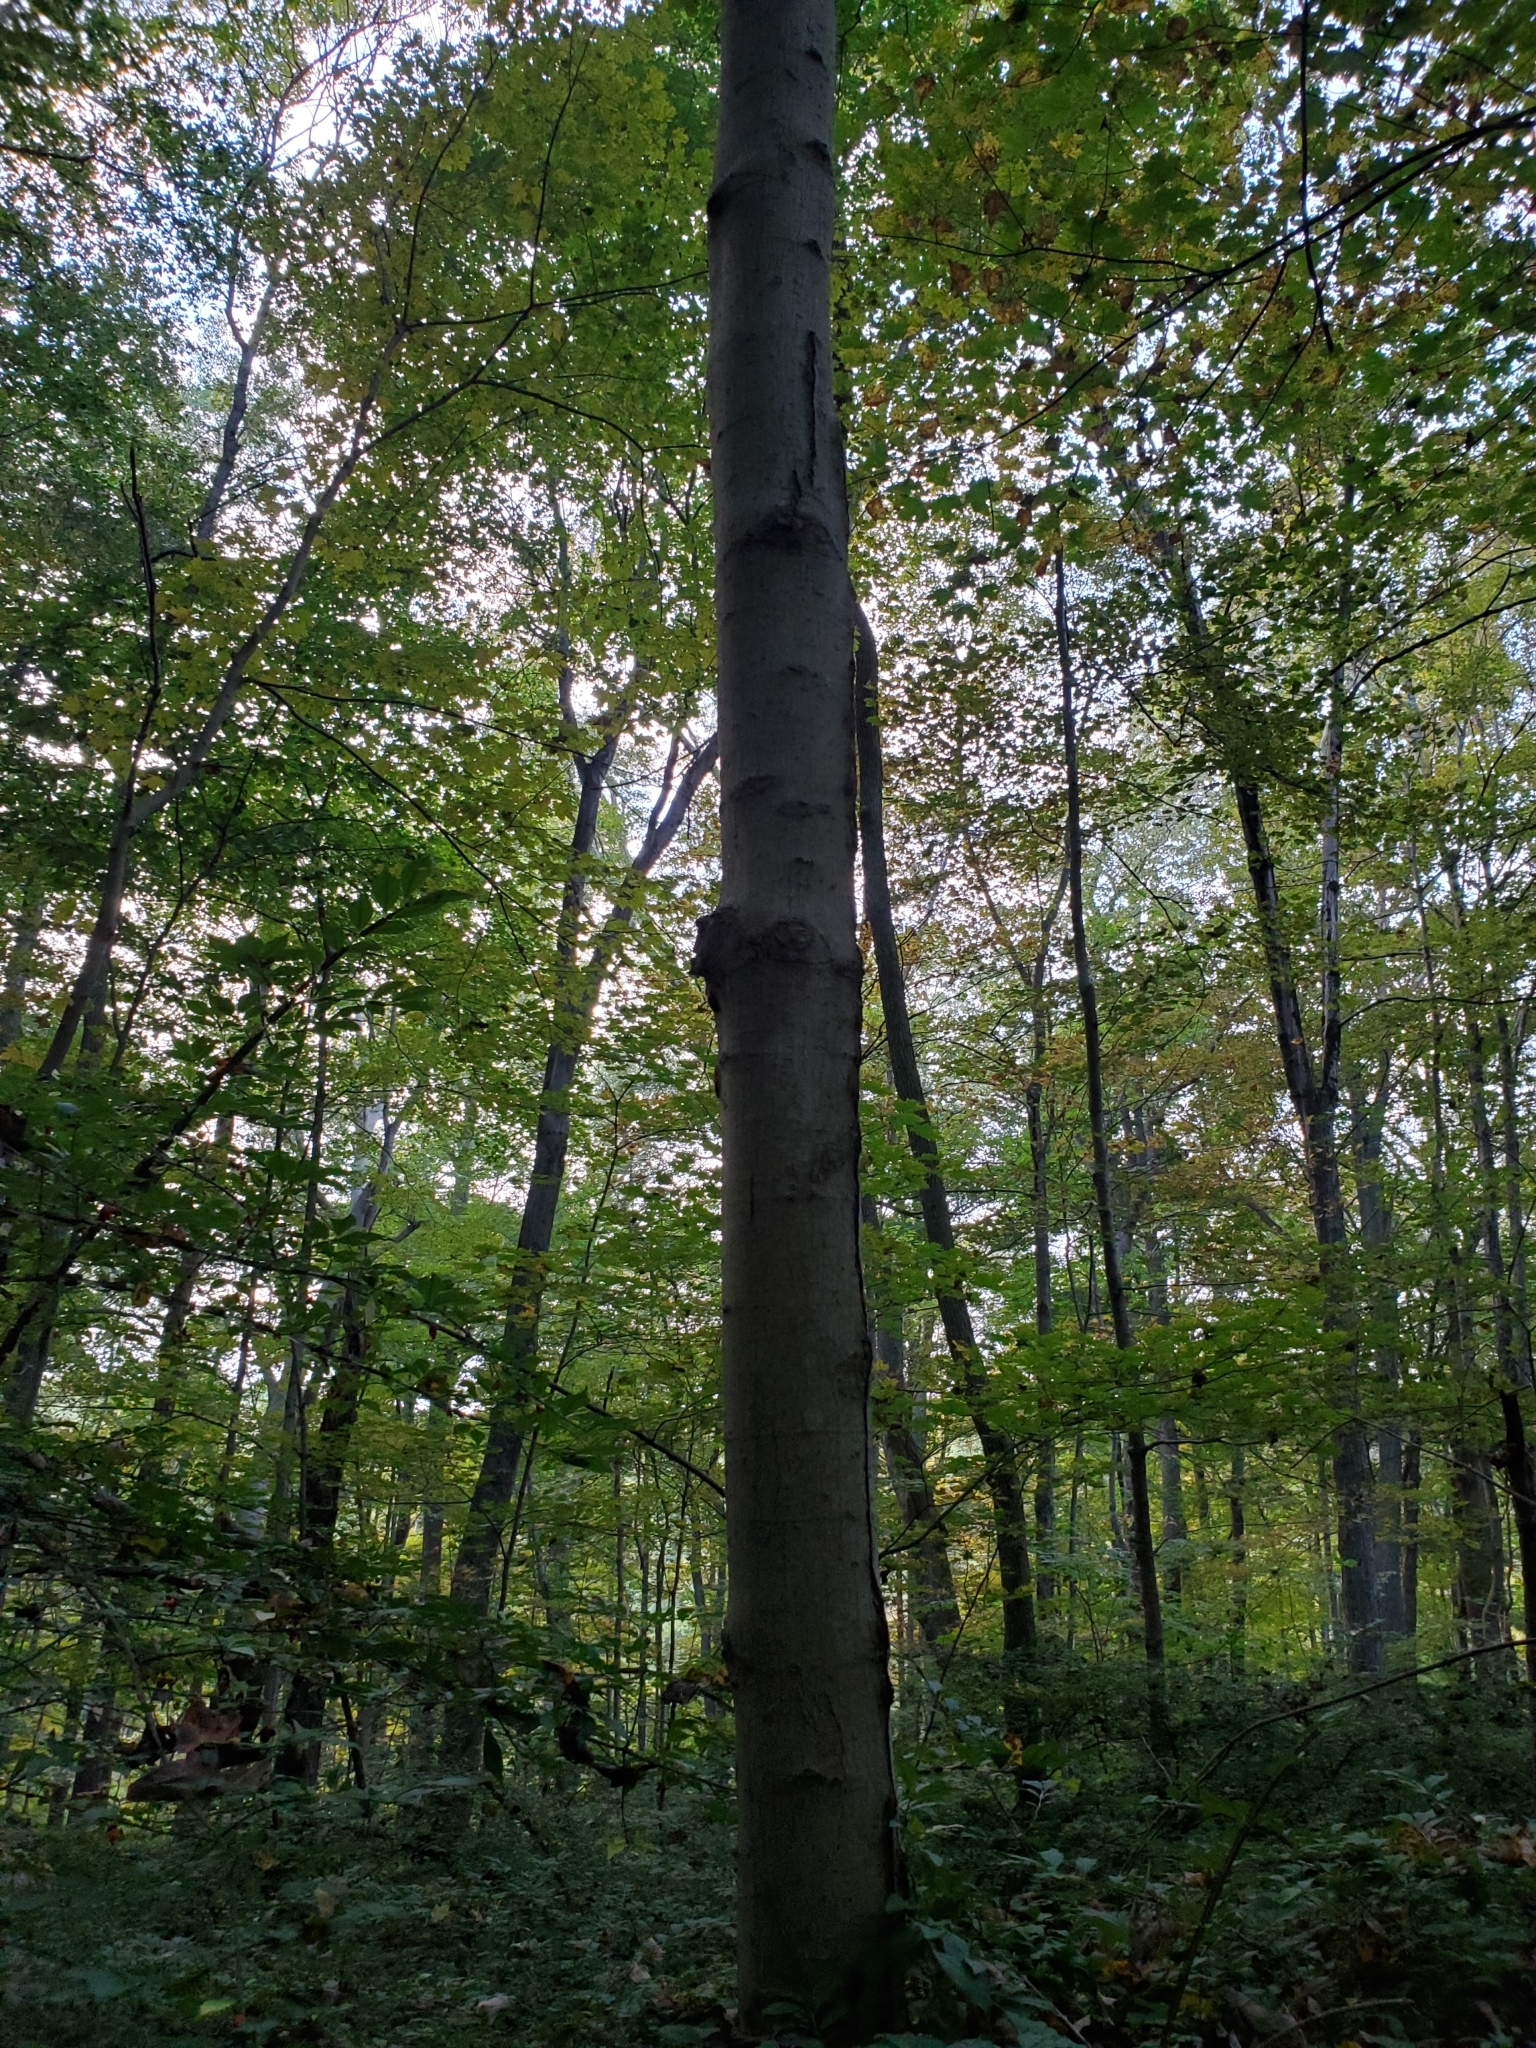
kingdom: Plantae
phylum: Tracheophyta
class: Magnoliopsida
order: Sapindales
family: Sapindaceae
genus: Acer
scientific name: Acer saccharum
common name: Sugar maple
